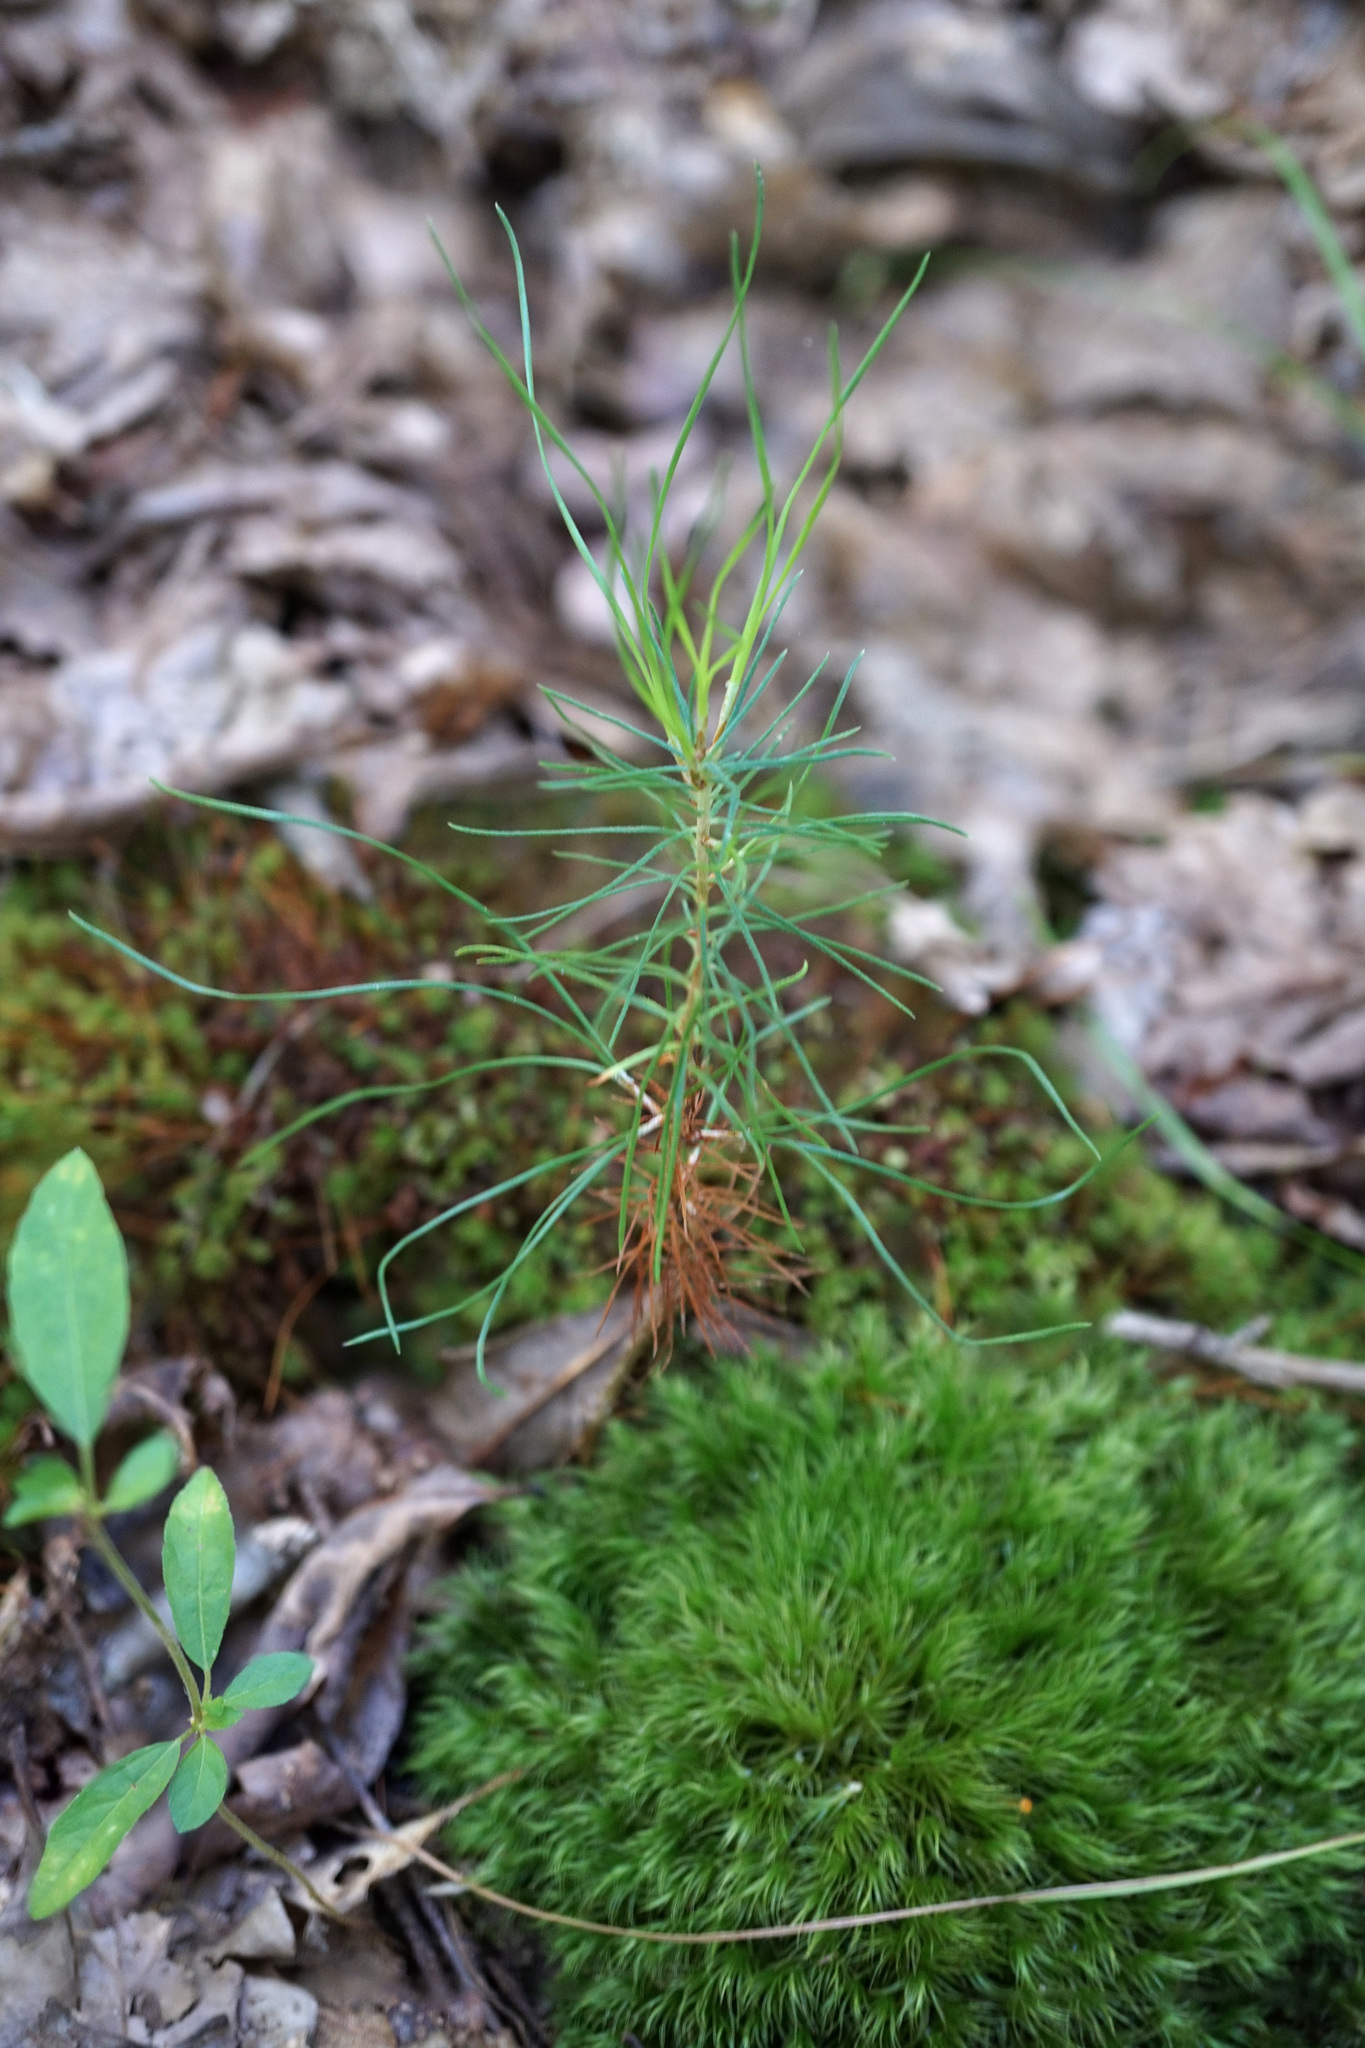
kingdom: Plantae
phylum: Tracheophyta
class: Pinopsida
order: Pinales
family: Pinaceae
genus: Pinus
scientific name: Pinus strobus
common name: Weymouth pine
